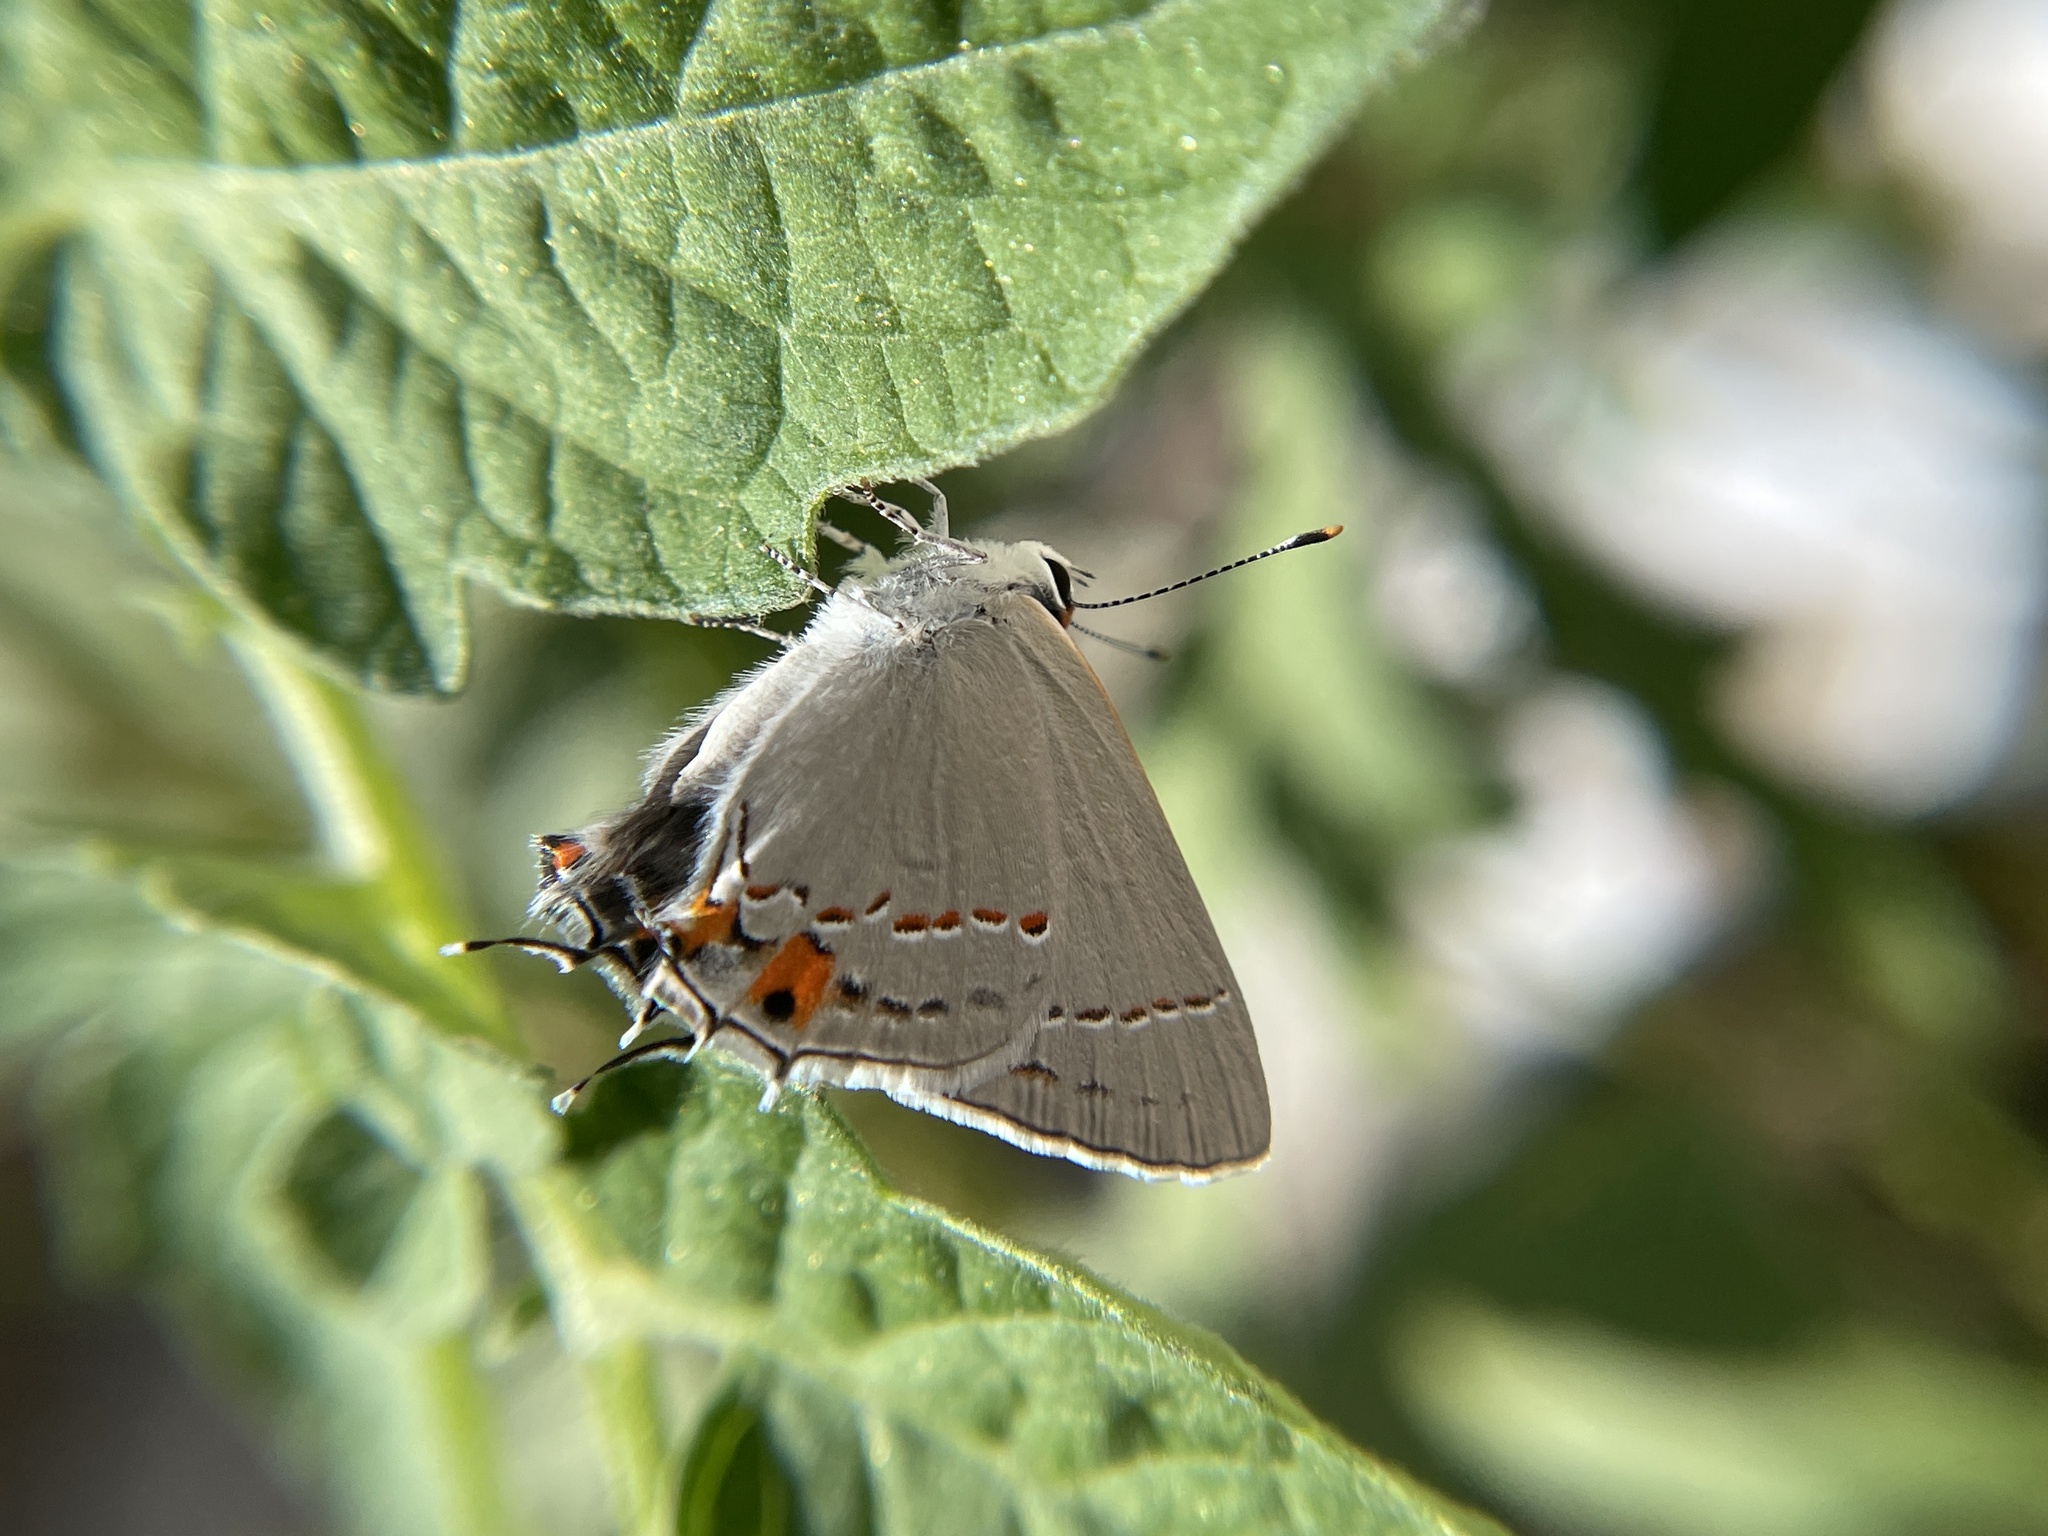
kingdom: Animalia
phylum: Arthropoda
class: Insecta
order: Lepidoptera
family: Lycaenidae
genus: Strymon
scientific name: Strymon melinus
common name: Gray hairstreak
